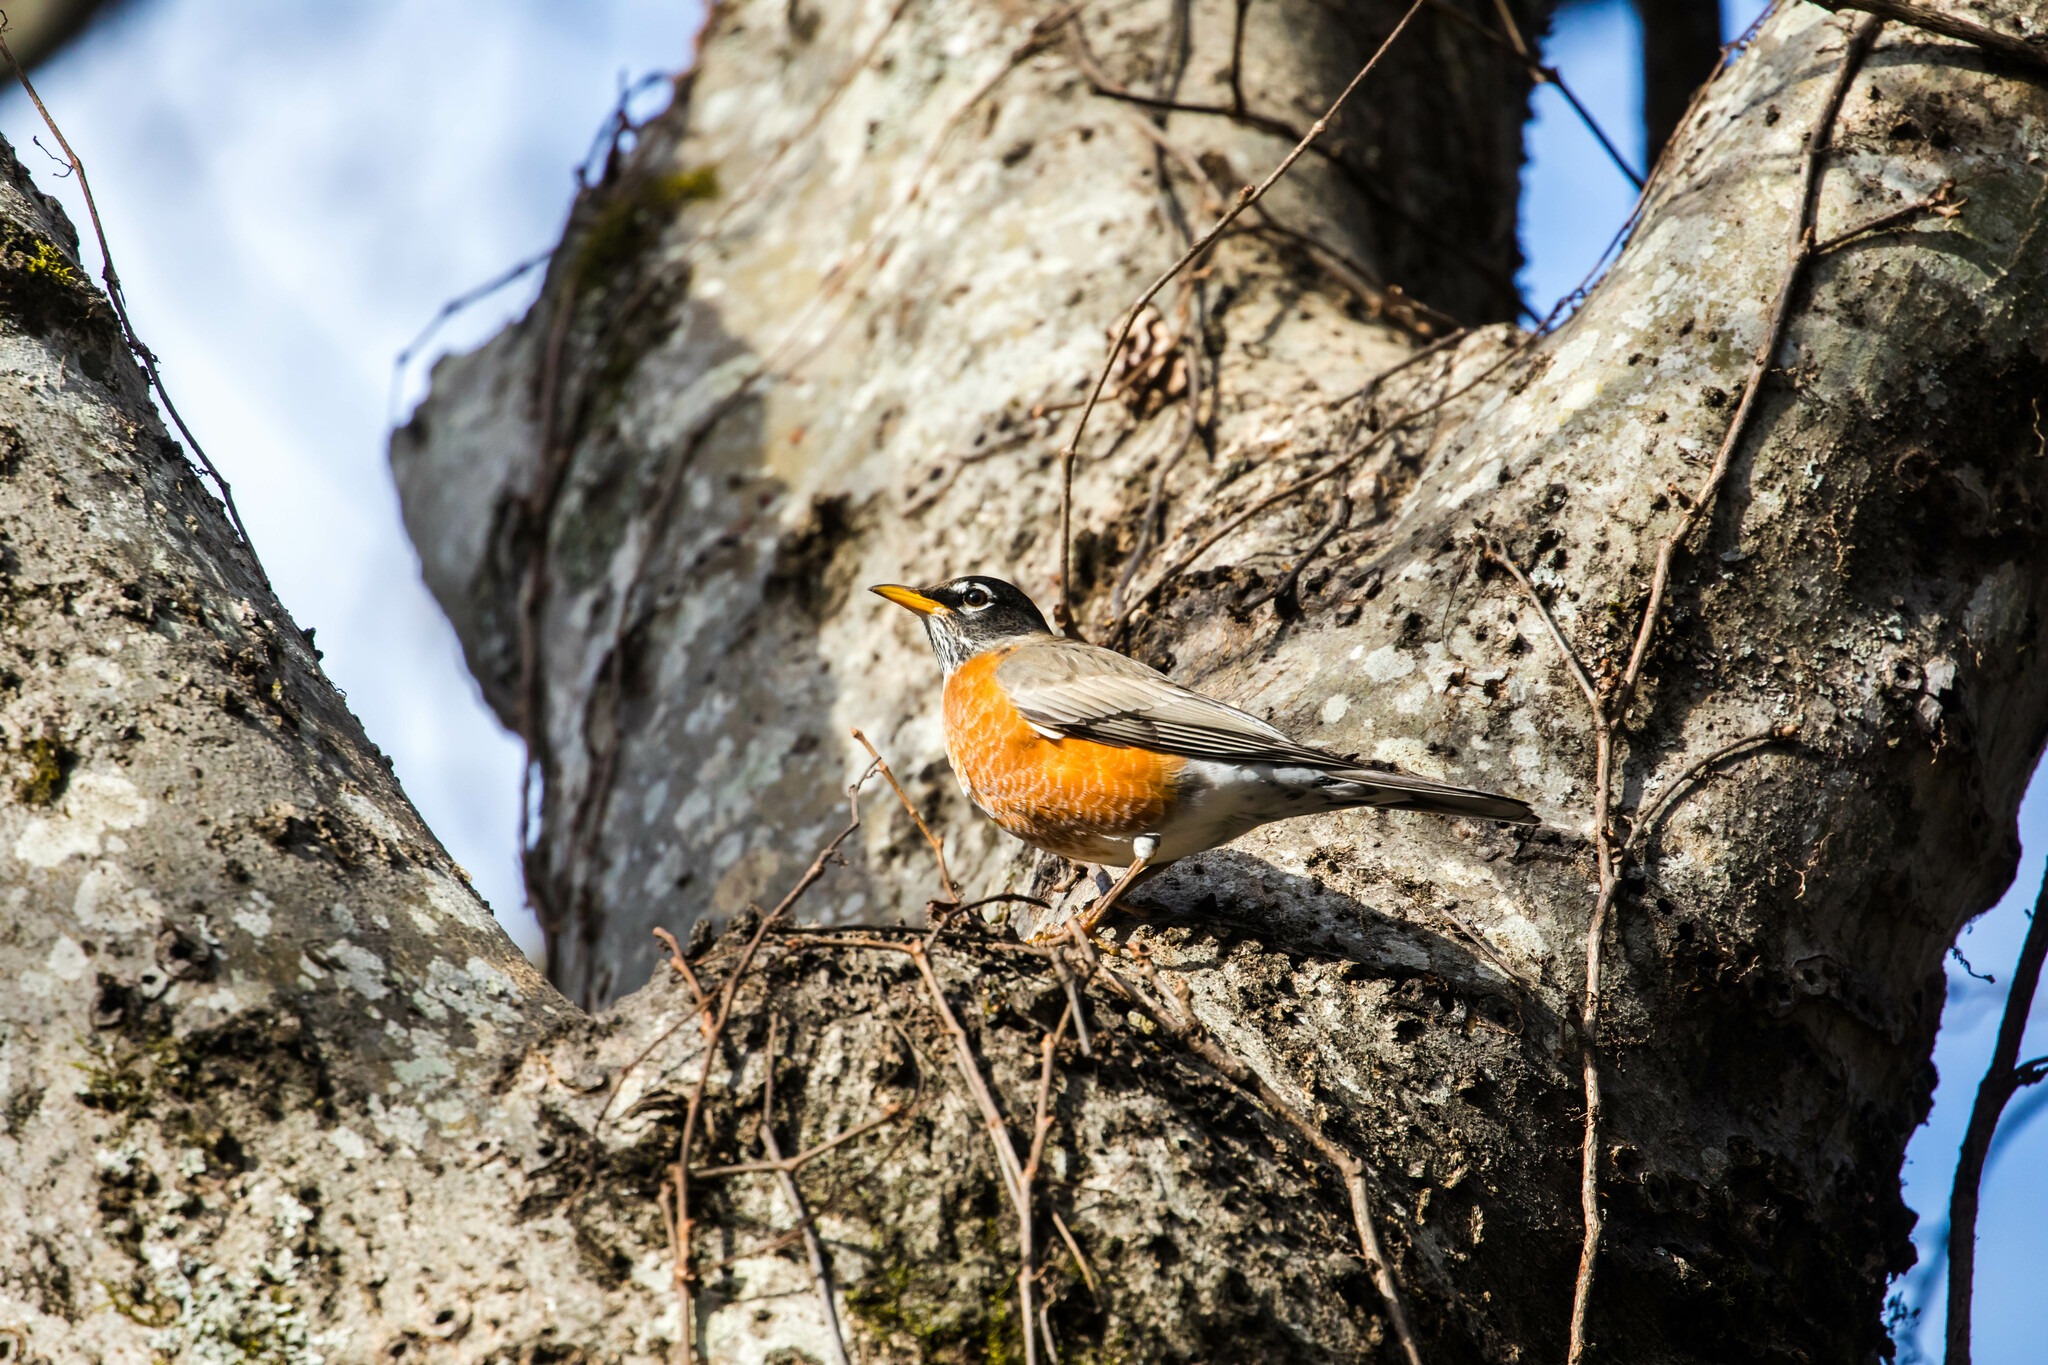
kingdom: Animalia
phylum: Chordata
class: Aves
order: Passeriformes
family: Turdidae
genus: Turdus
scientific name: Turdus migratorius
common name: American robin
